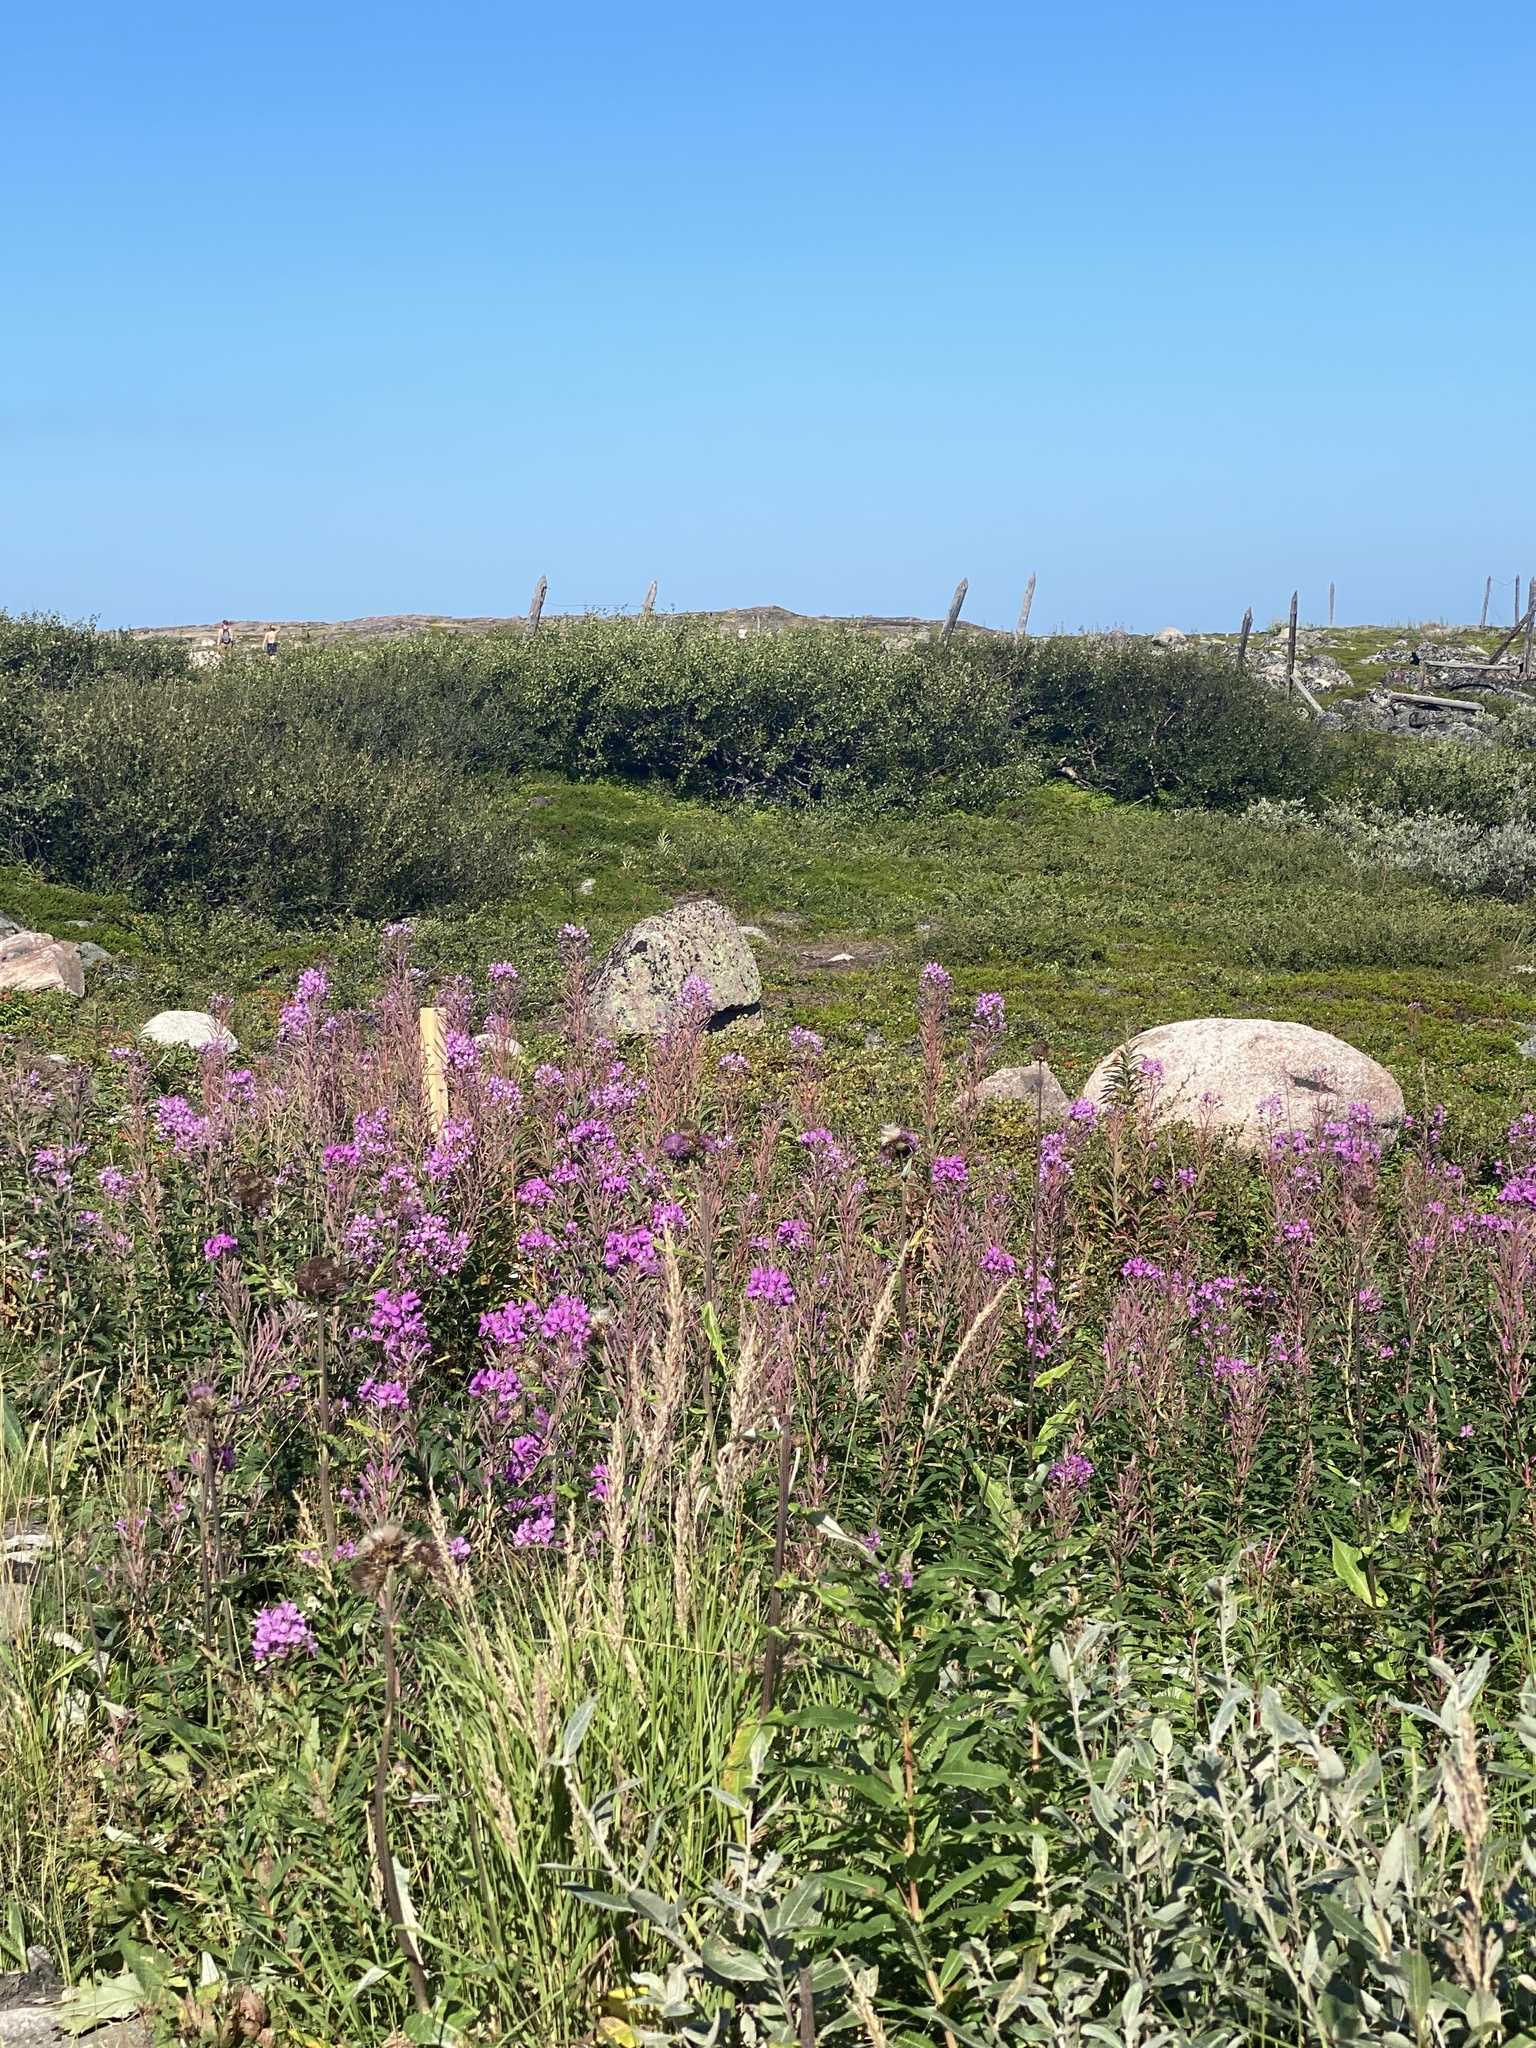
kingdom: Plantae
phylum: Tracheophyta
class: Magnoliopsida
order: Myrtales
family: Onagraceae
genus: Chamaenerion
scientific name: Chamaenerion angustifolium
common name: Fireweed
